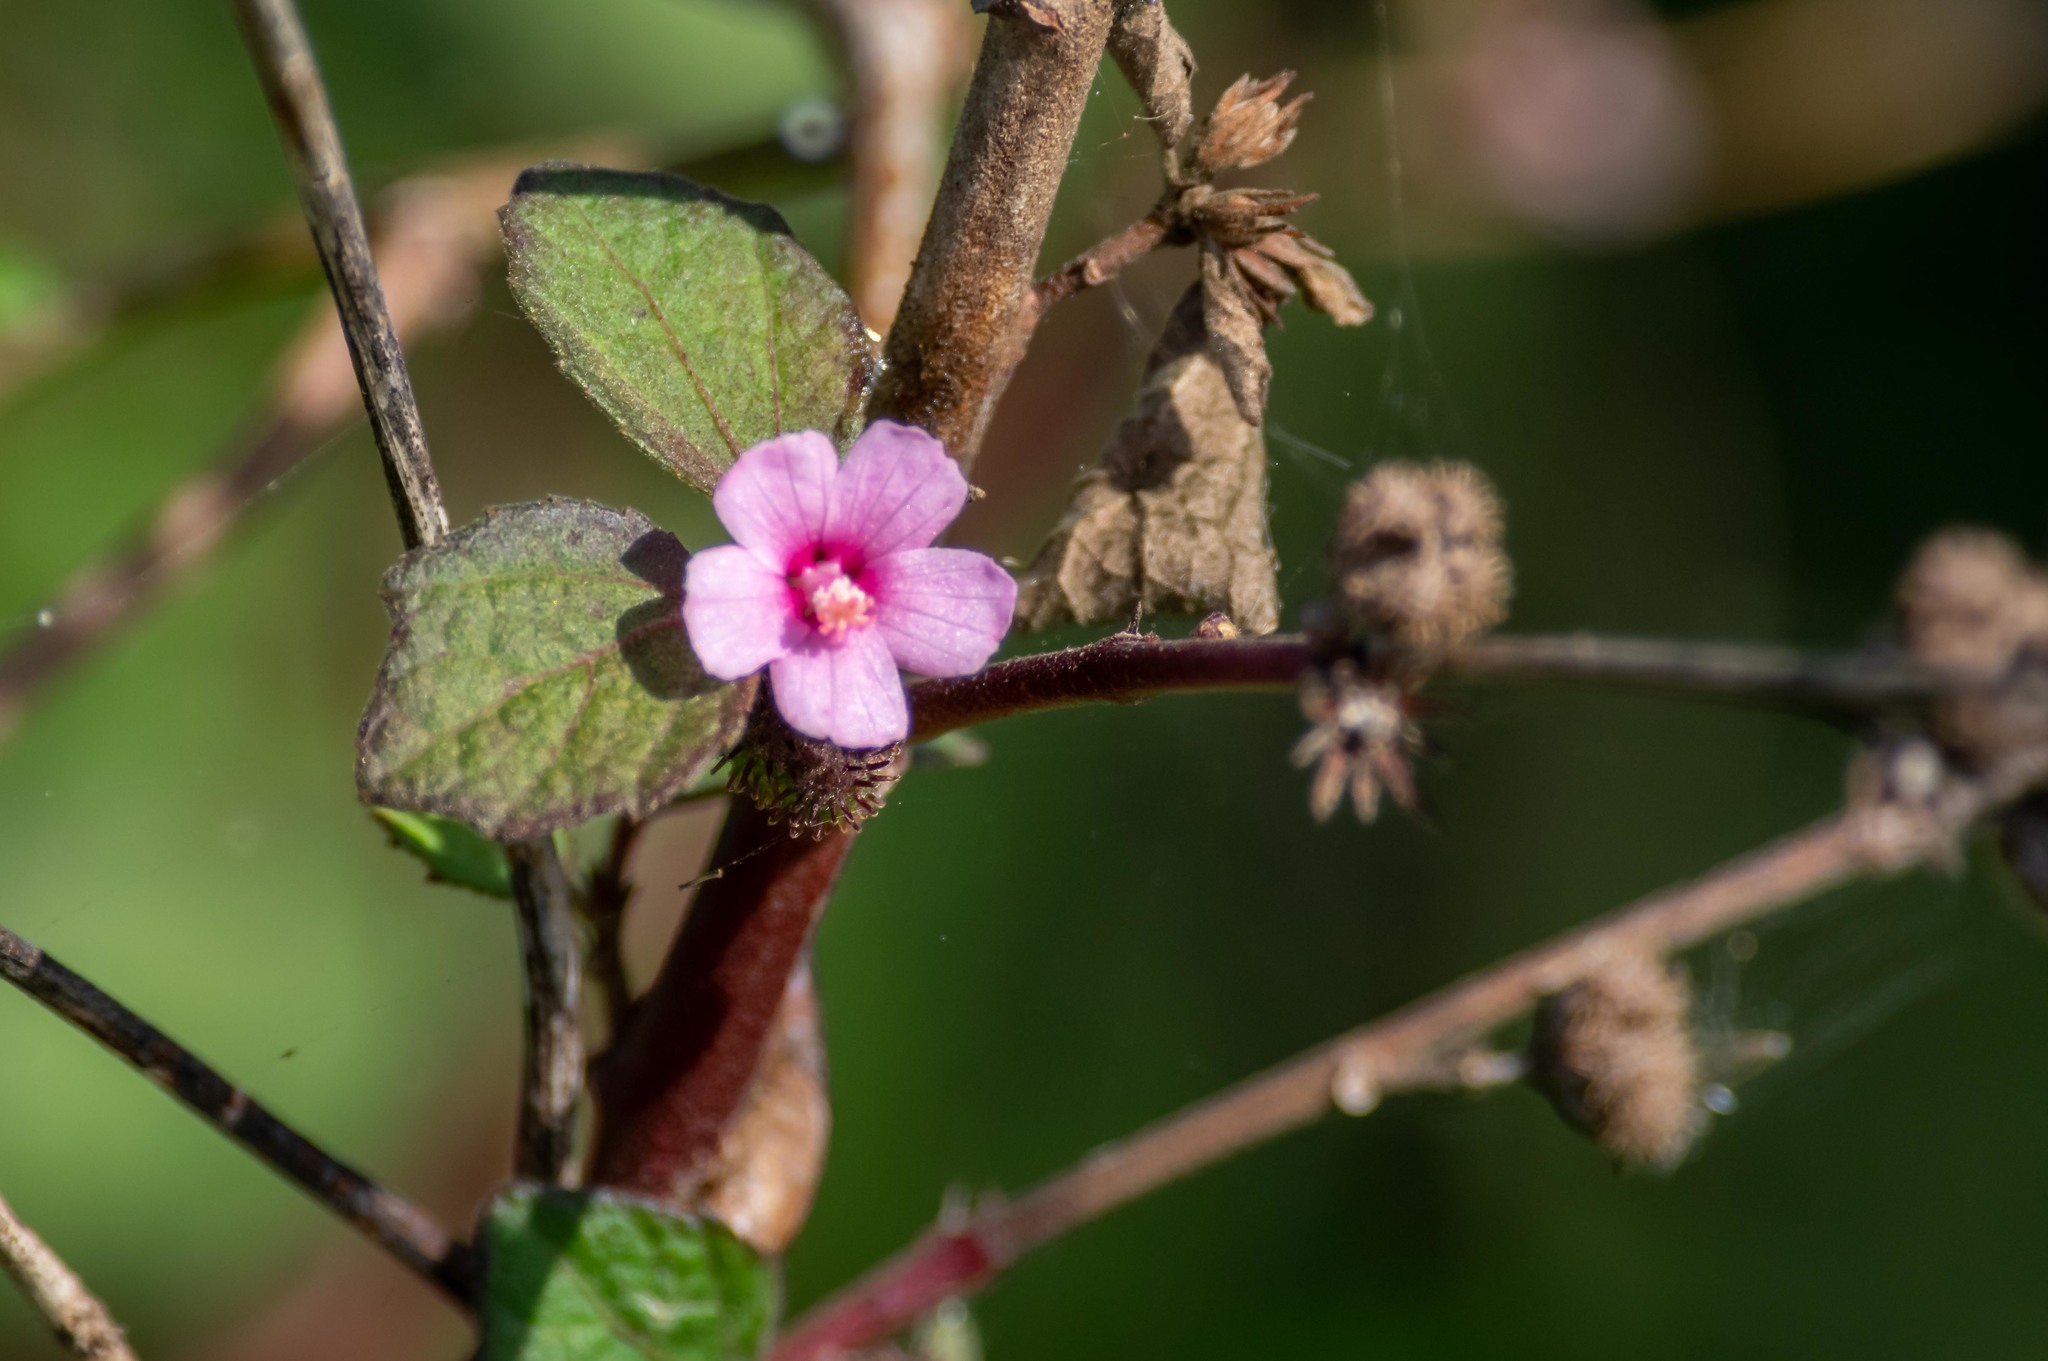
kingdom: Plantae
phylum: Tracheophyta
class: Magnoliopsida
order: Malvales
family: Malvaceae
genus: Urena
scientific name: Urena lobata
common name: Caesarweed
